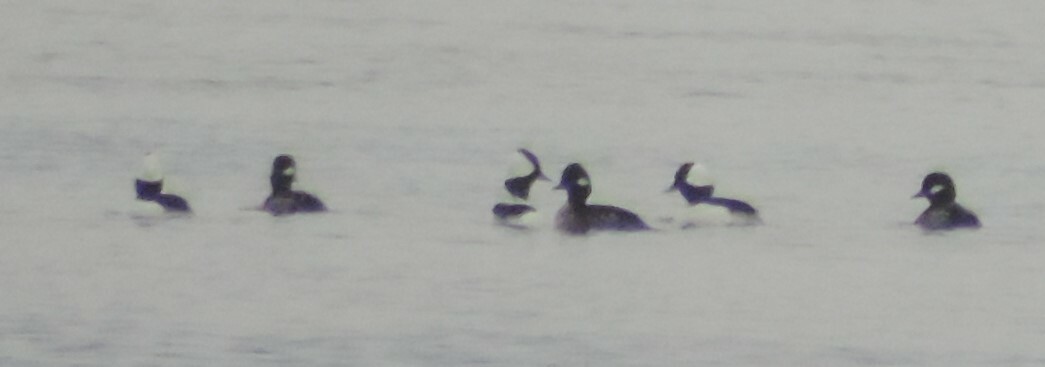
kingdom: Animalia
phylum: Chordata
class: Aves
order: Anseriformes
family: Anatidae
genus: Bucephala
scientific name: Bucephala albeola
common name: Bufflehead
